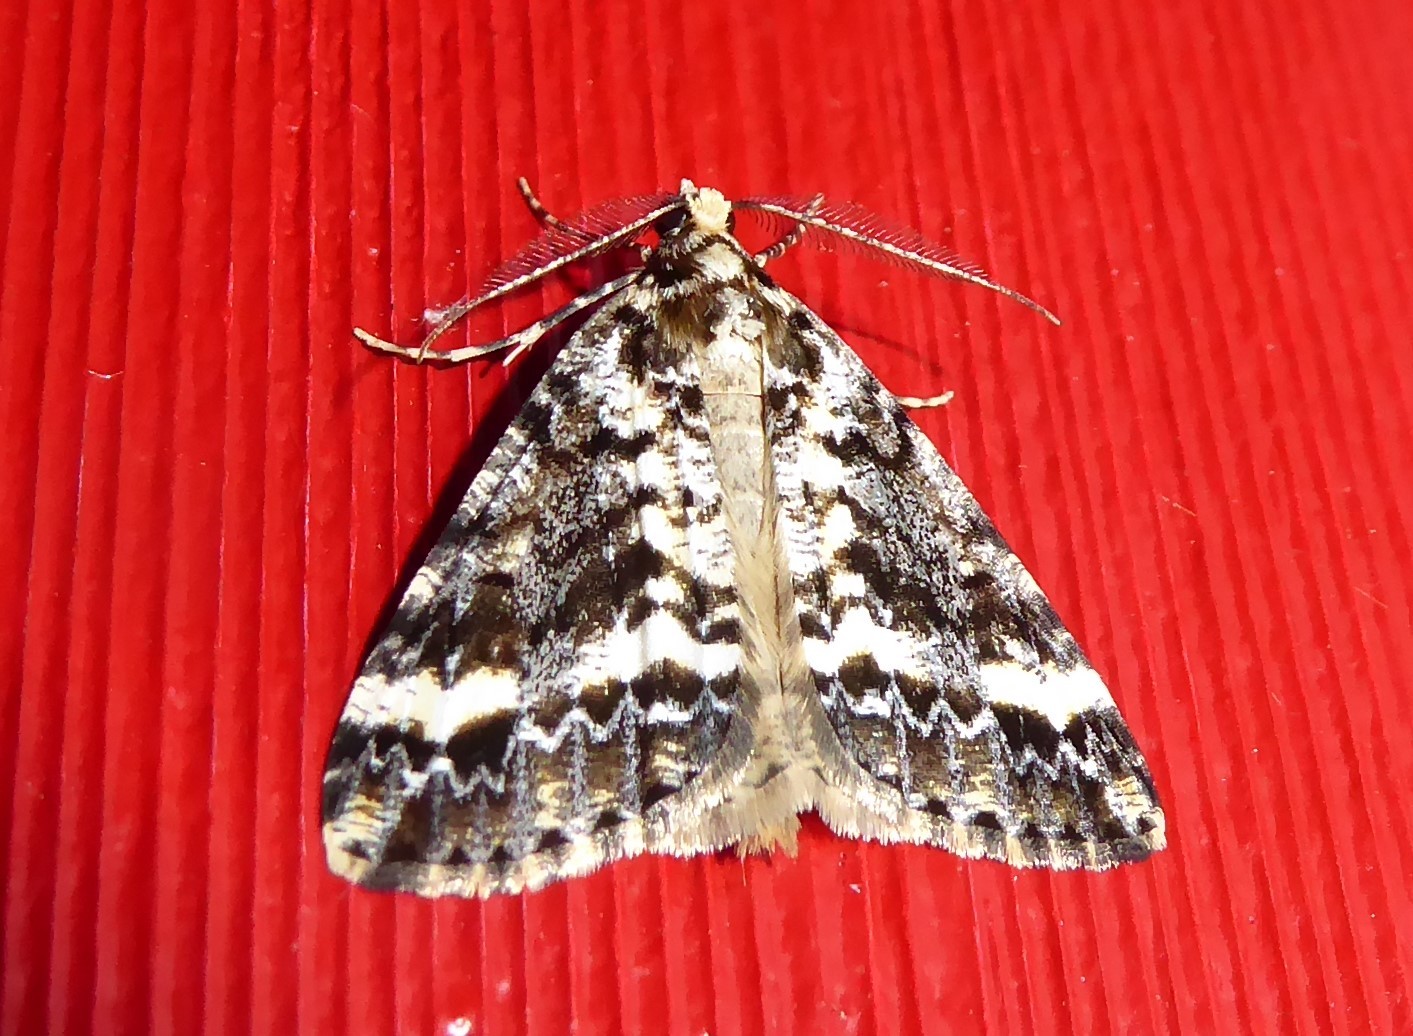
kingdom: Animalia
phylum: Arthropoda
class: Insecta
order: Lepidoptera
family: Geometridae
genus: Pseudocoremia
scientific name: Pseudocoremia leucelaea
